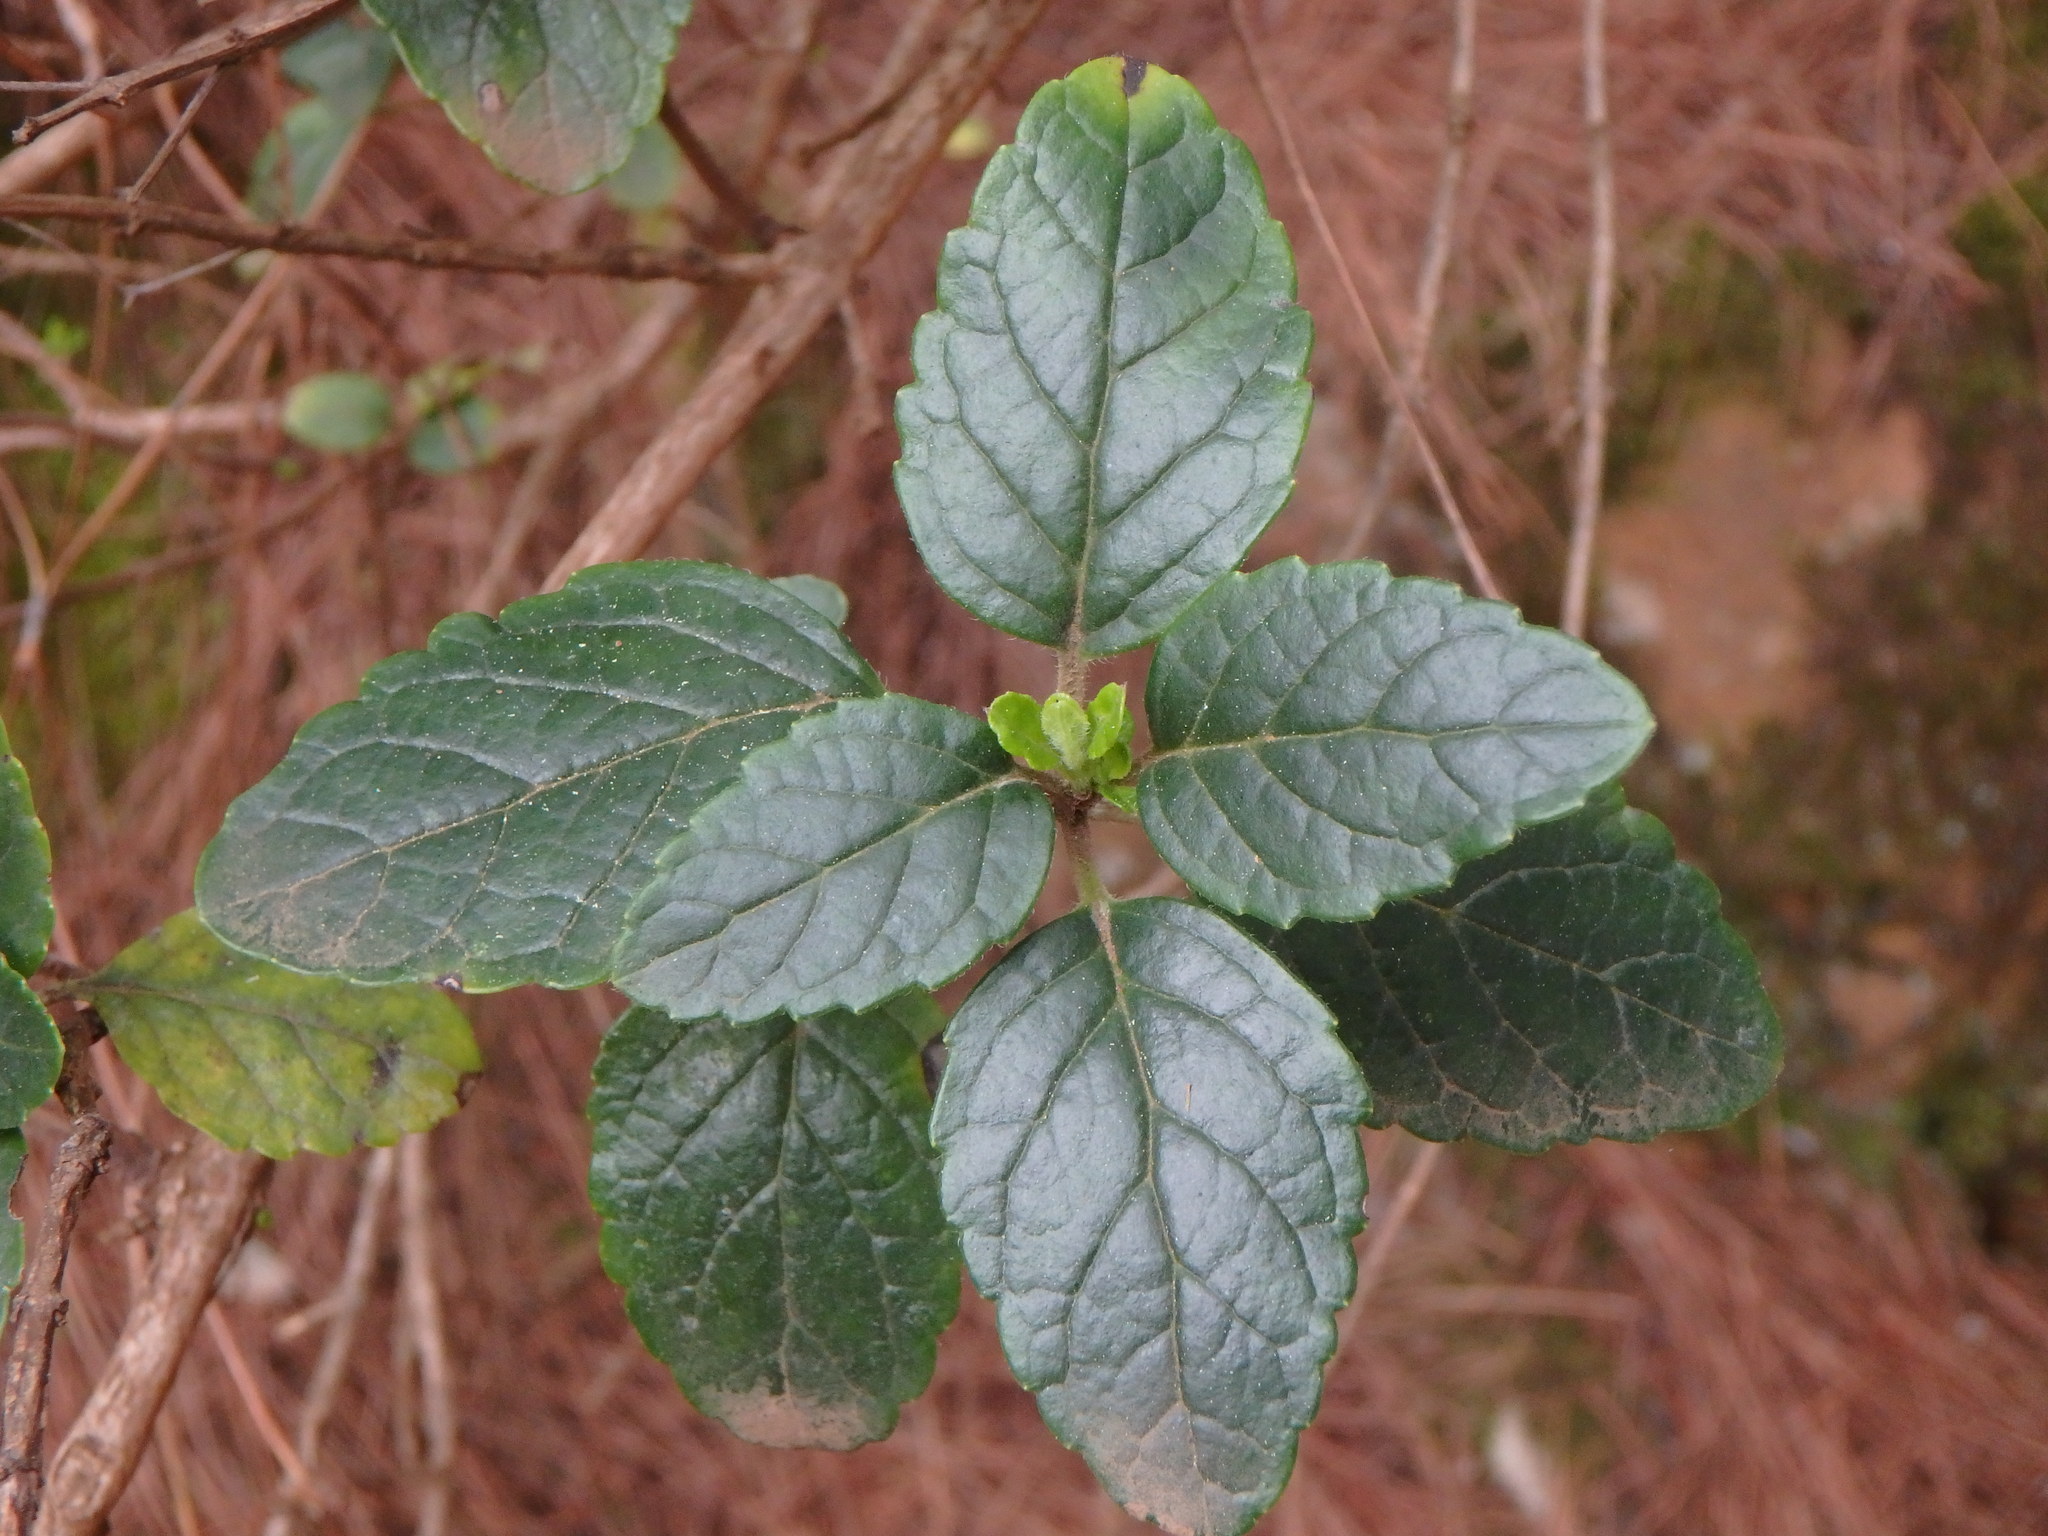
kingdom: Plantae
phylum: Tracheophyta
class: Magnoliopsida
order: Lamiales
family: Lamiaceae
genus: Bystropogon
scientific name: Bystropogon canariensis
